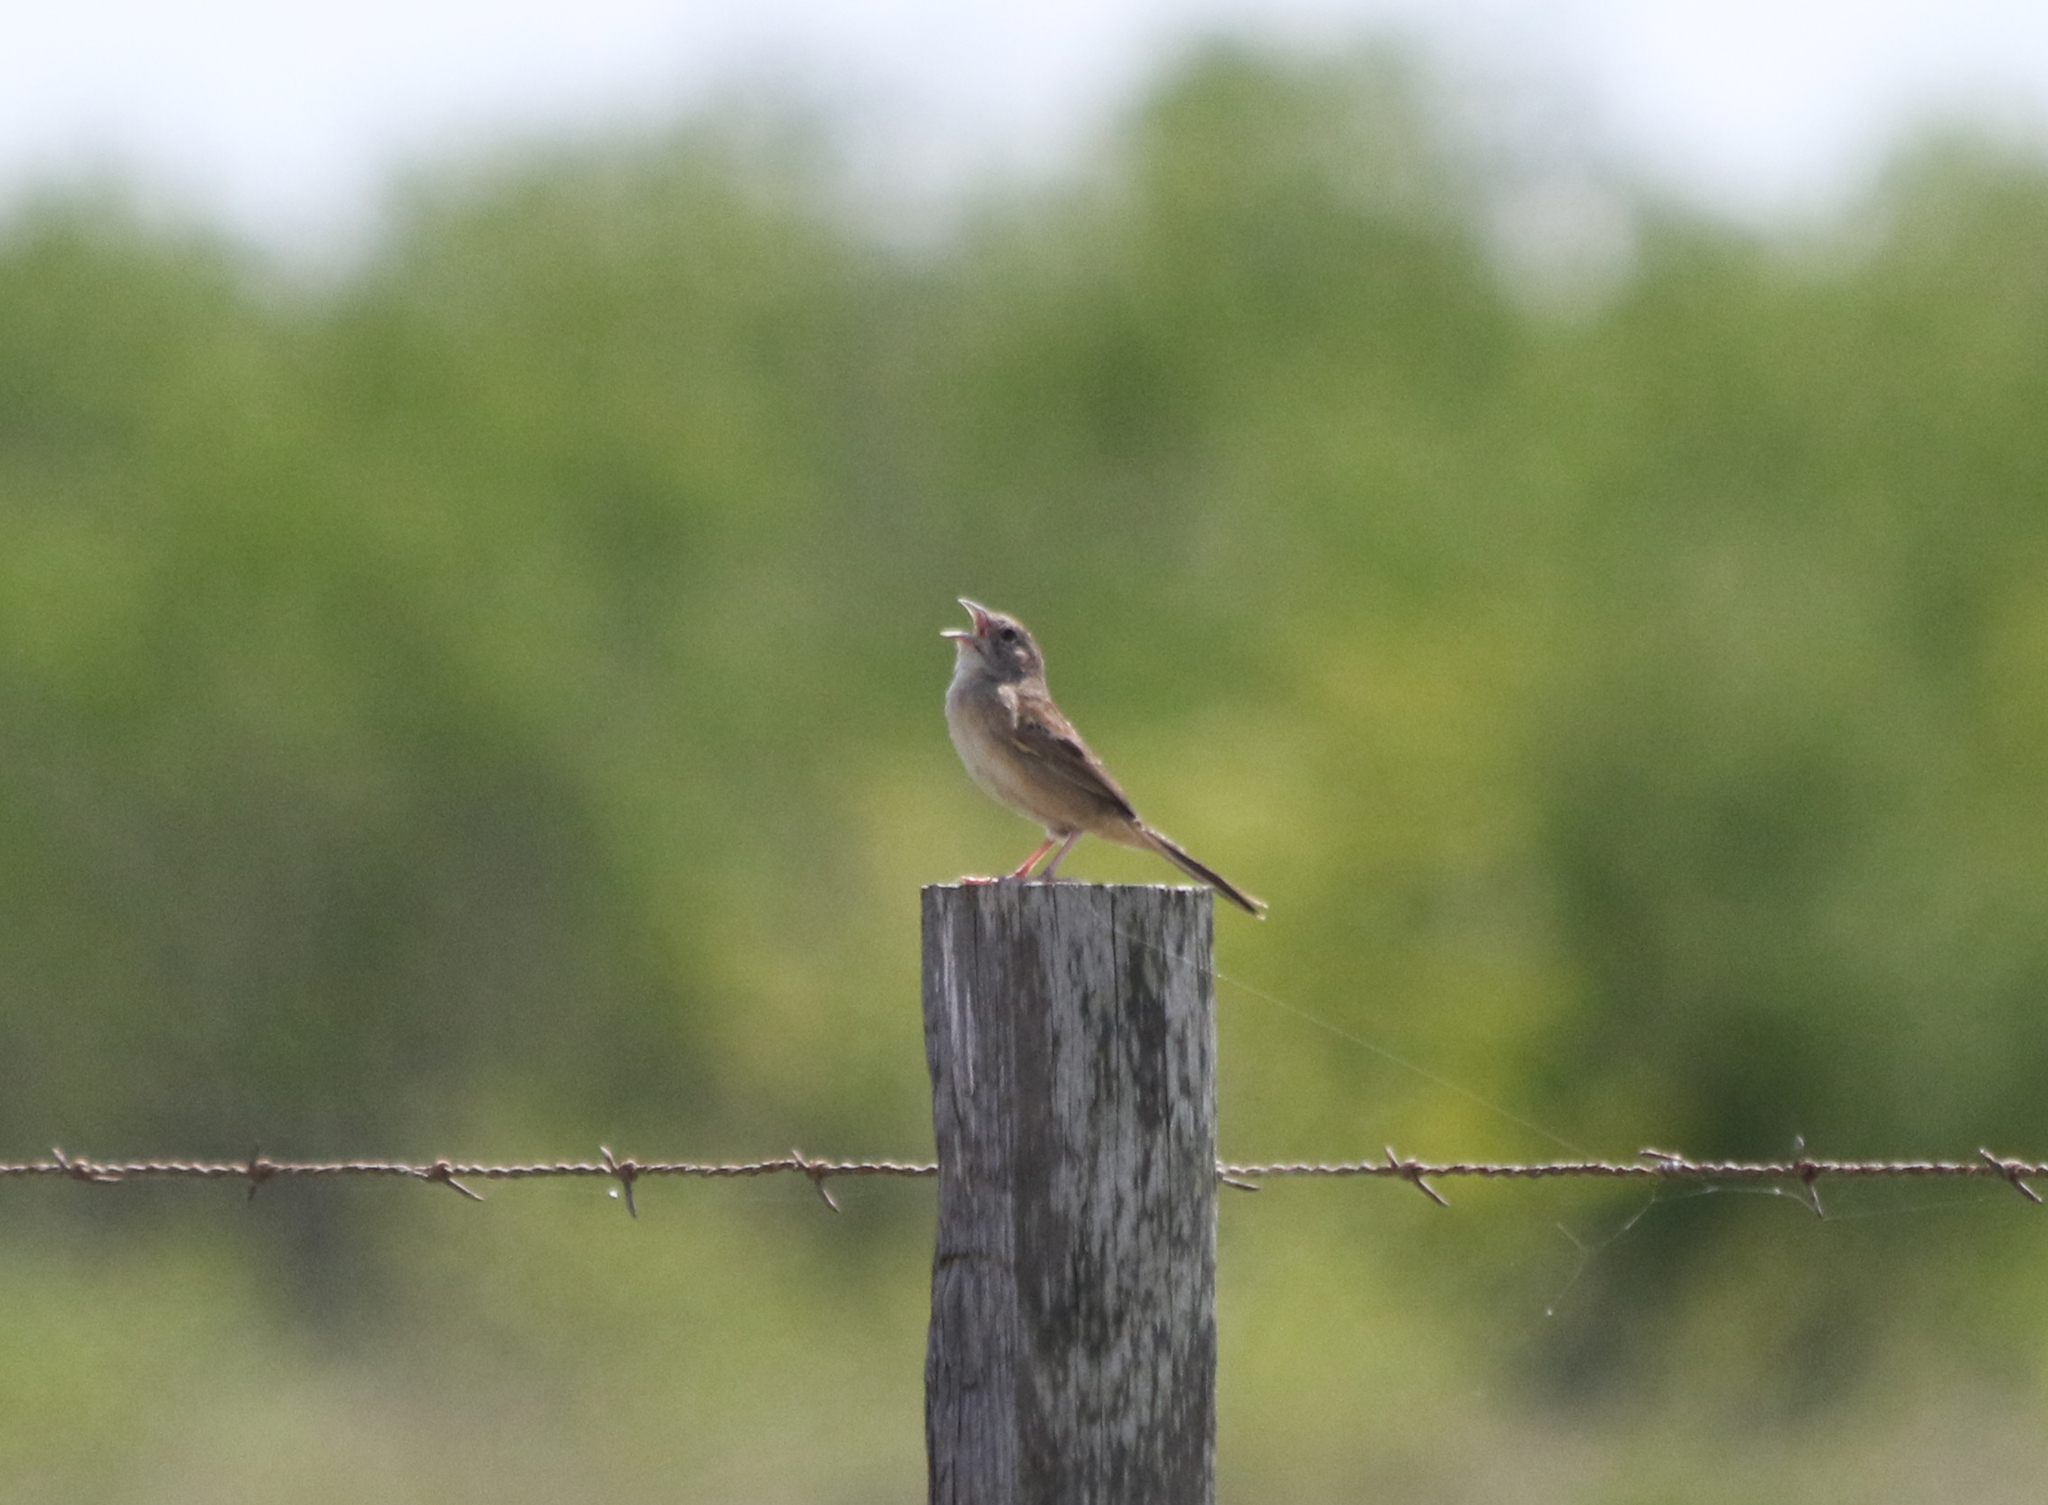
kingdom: Animalia
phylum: Chordata
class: Aves
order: Passeriformes
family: Passerellidae
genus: Peucaea
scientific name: Peucaea botterii
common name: Botteri's sparrow
